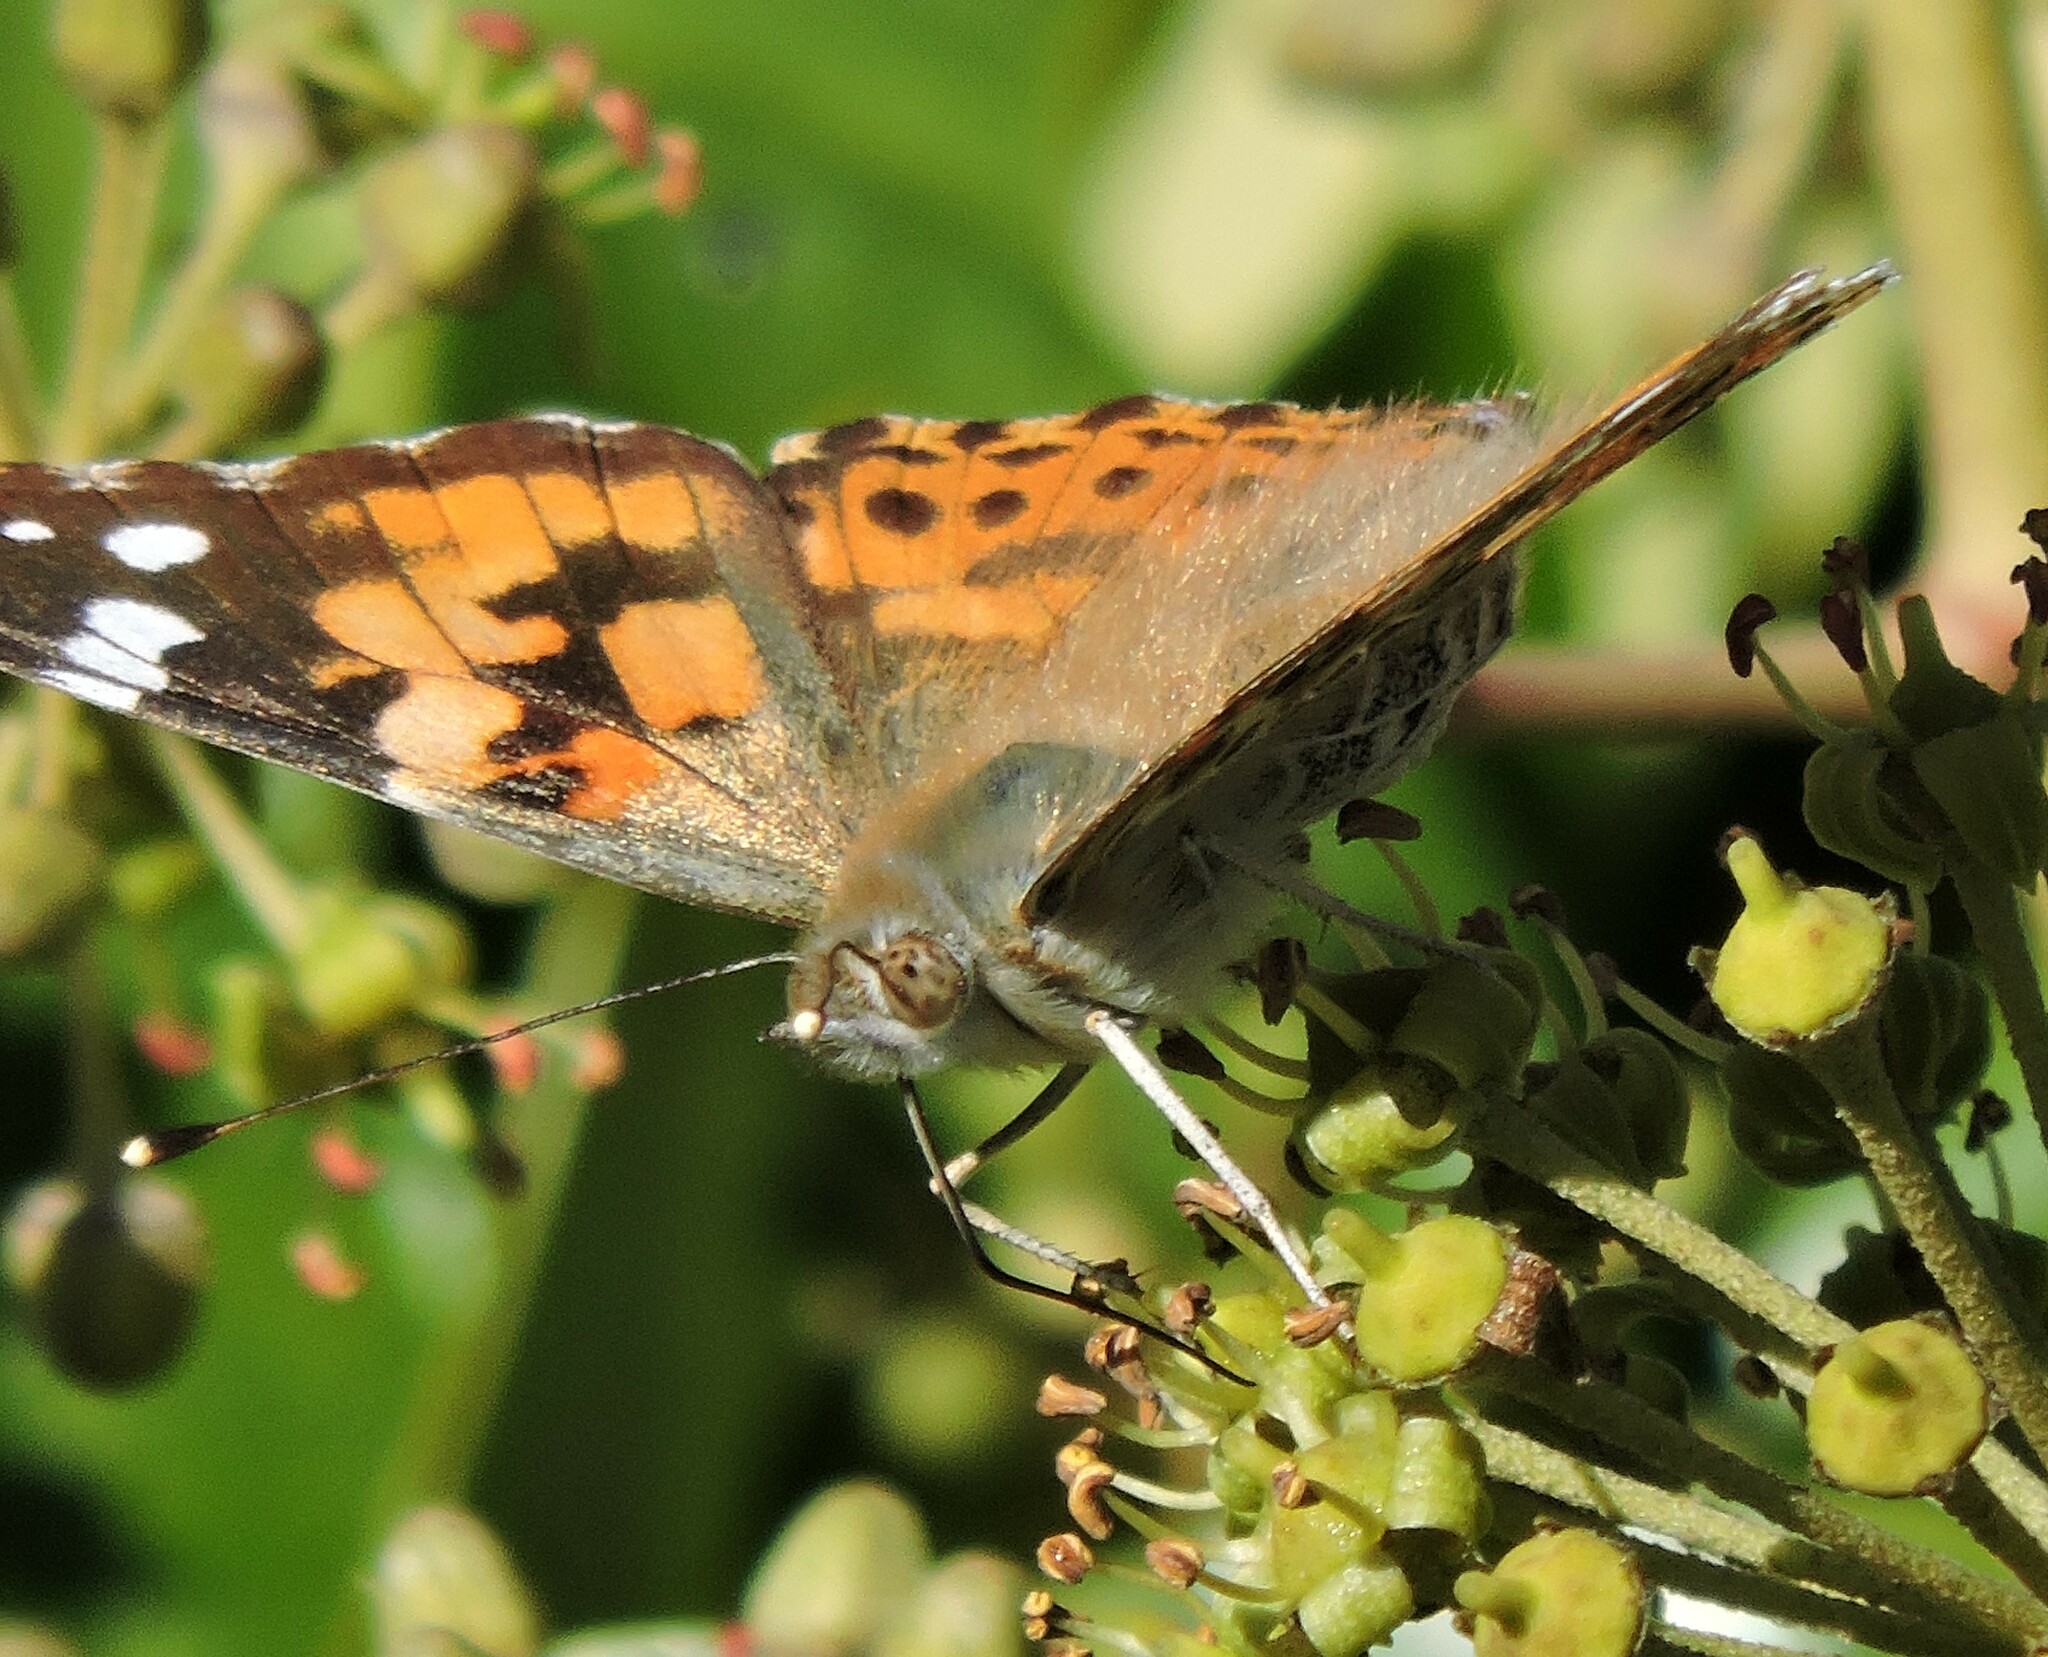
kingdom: Animalia
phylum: Arthropoda
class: Insecta
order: Lepidoptera
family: Nymphalidae
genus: Vanessa
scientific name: Vanessa cardui
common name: Painted lady
